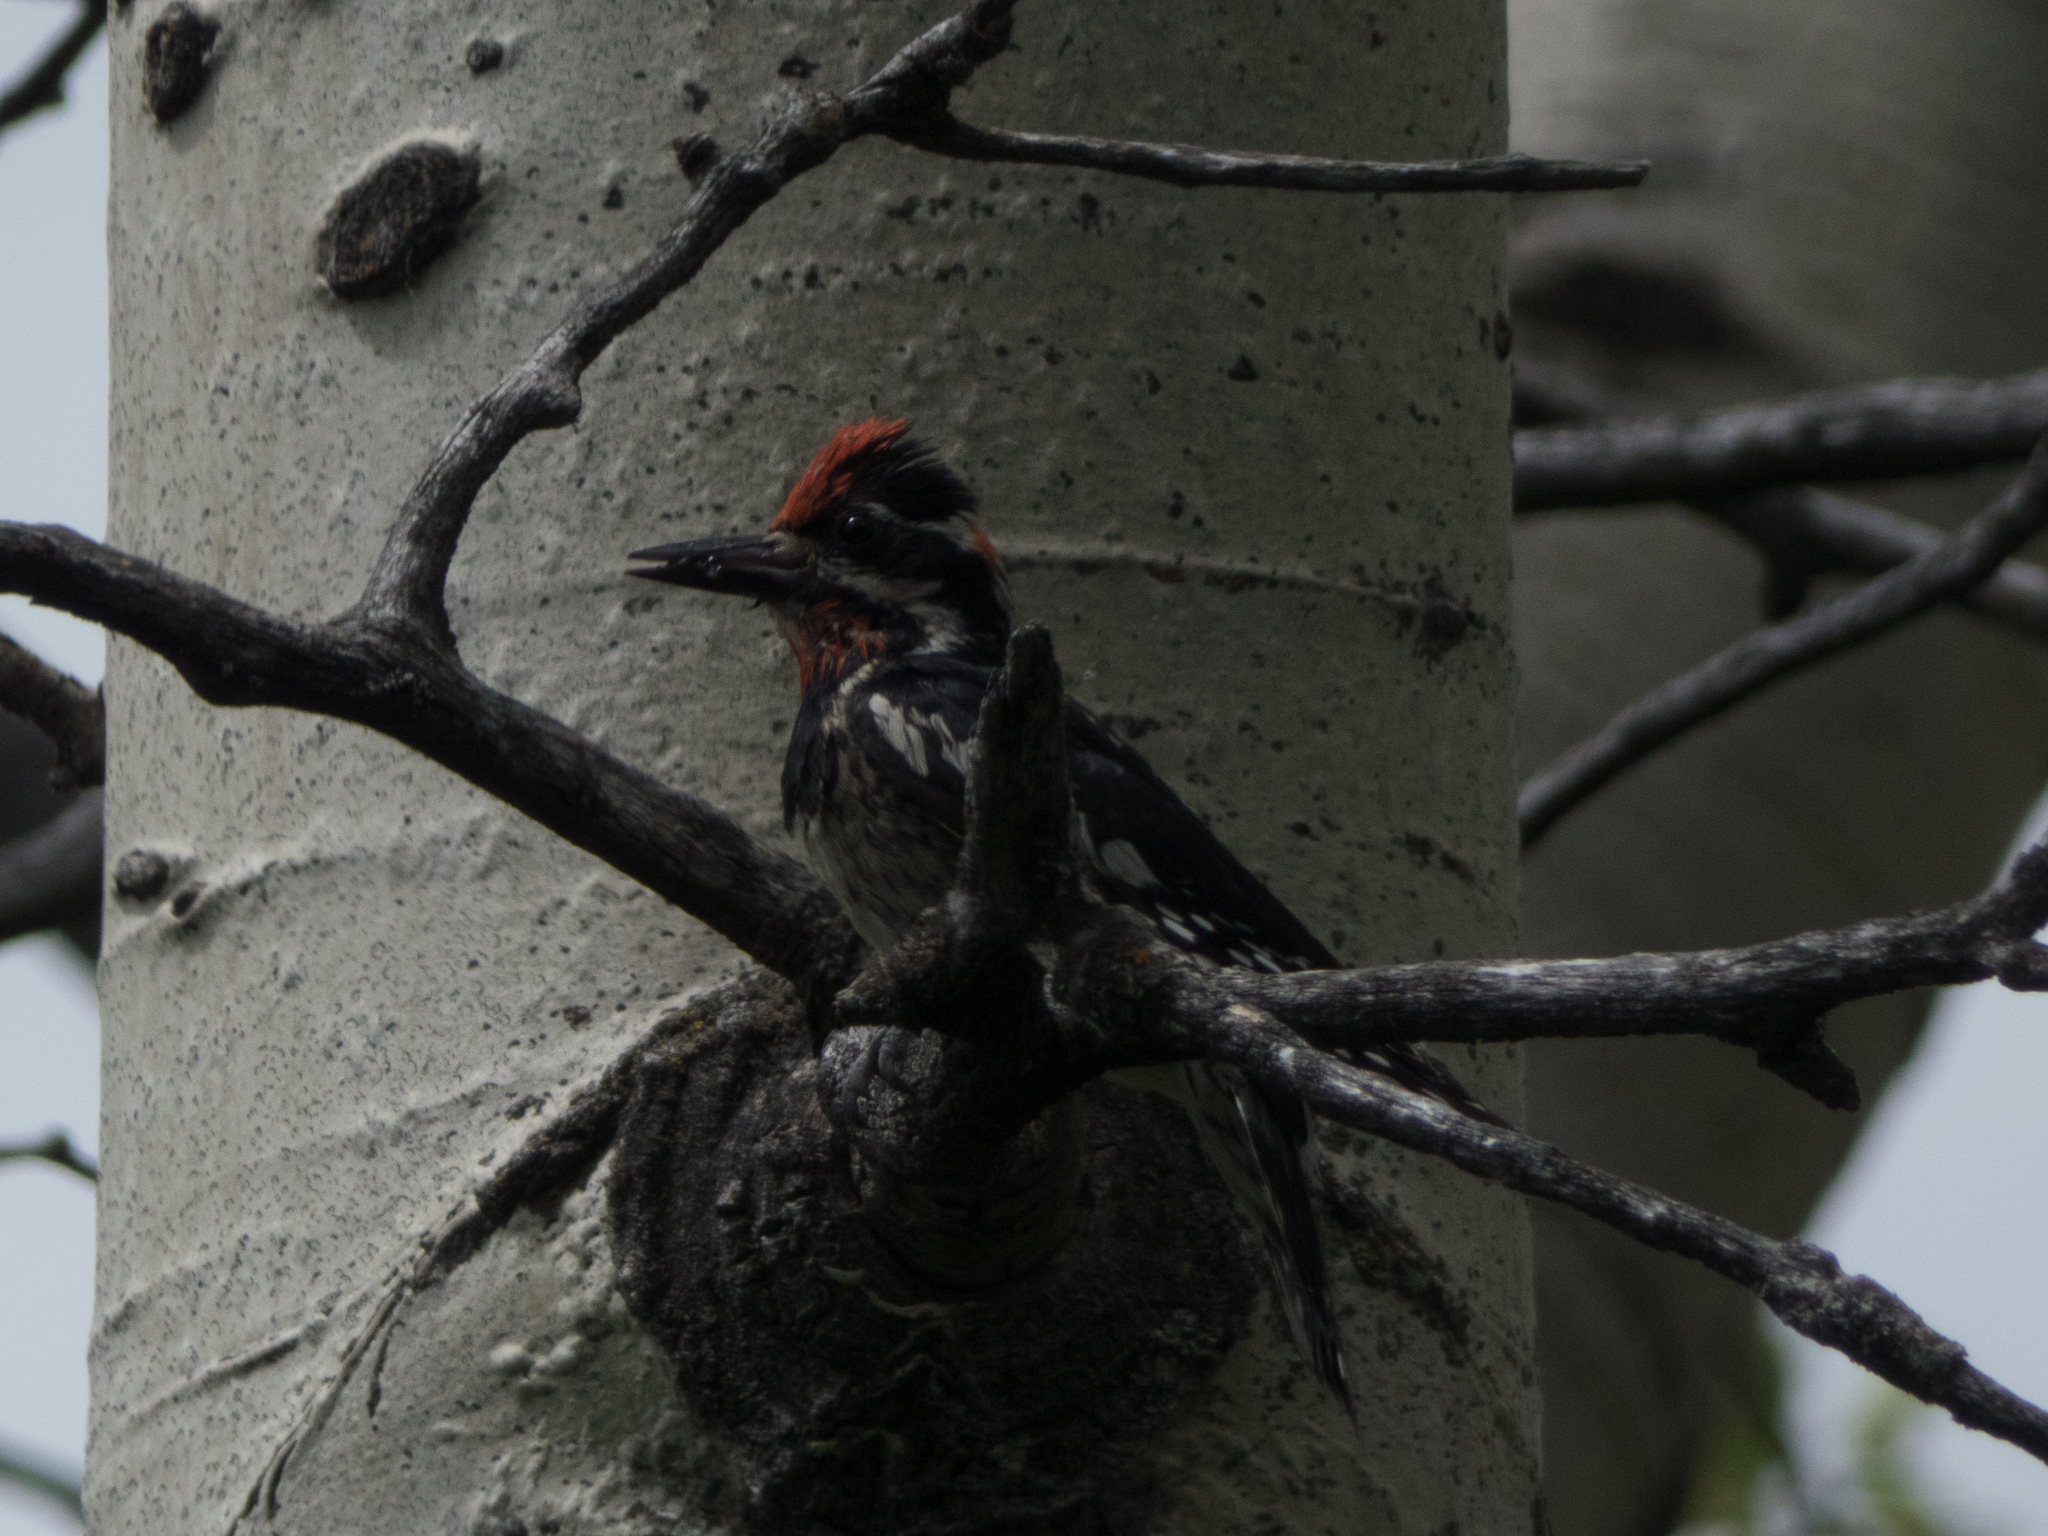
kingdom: Animalia
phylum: Chordata
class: Aves
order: Piciformes
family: Picidae
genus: Sphyrapicus
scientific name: Sphyrapicus nuchalis
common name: Red-naped sapsucker
